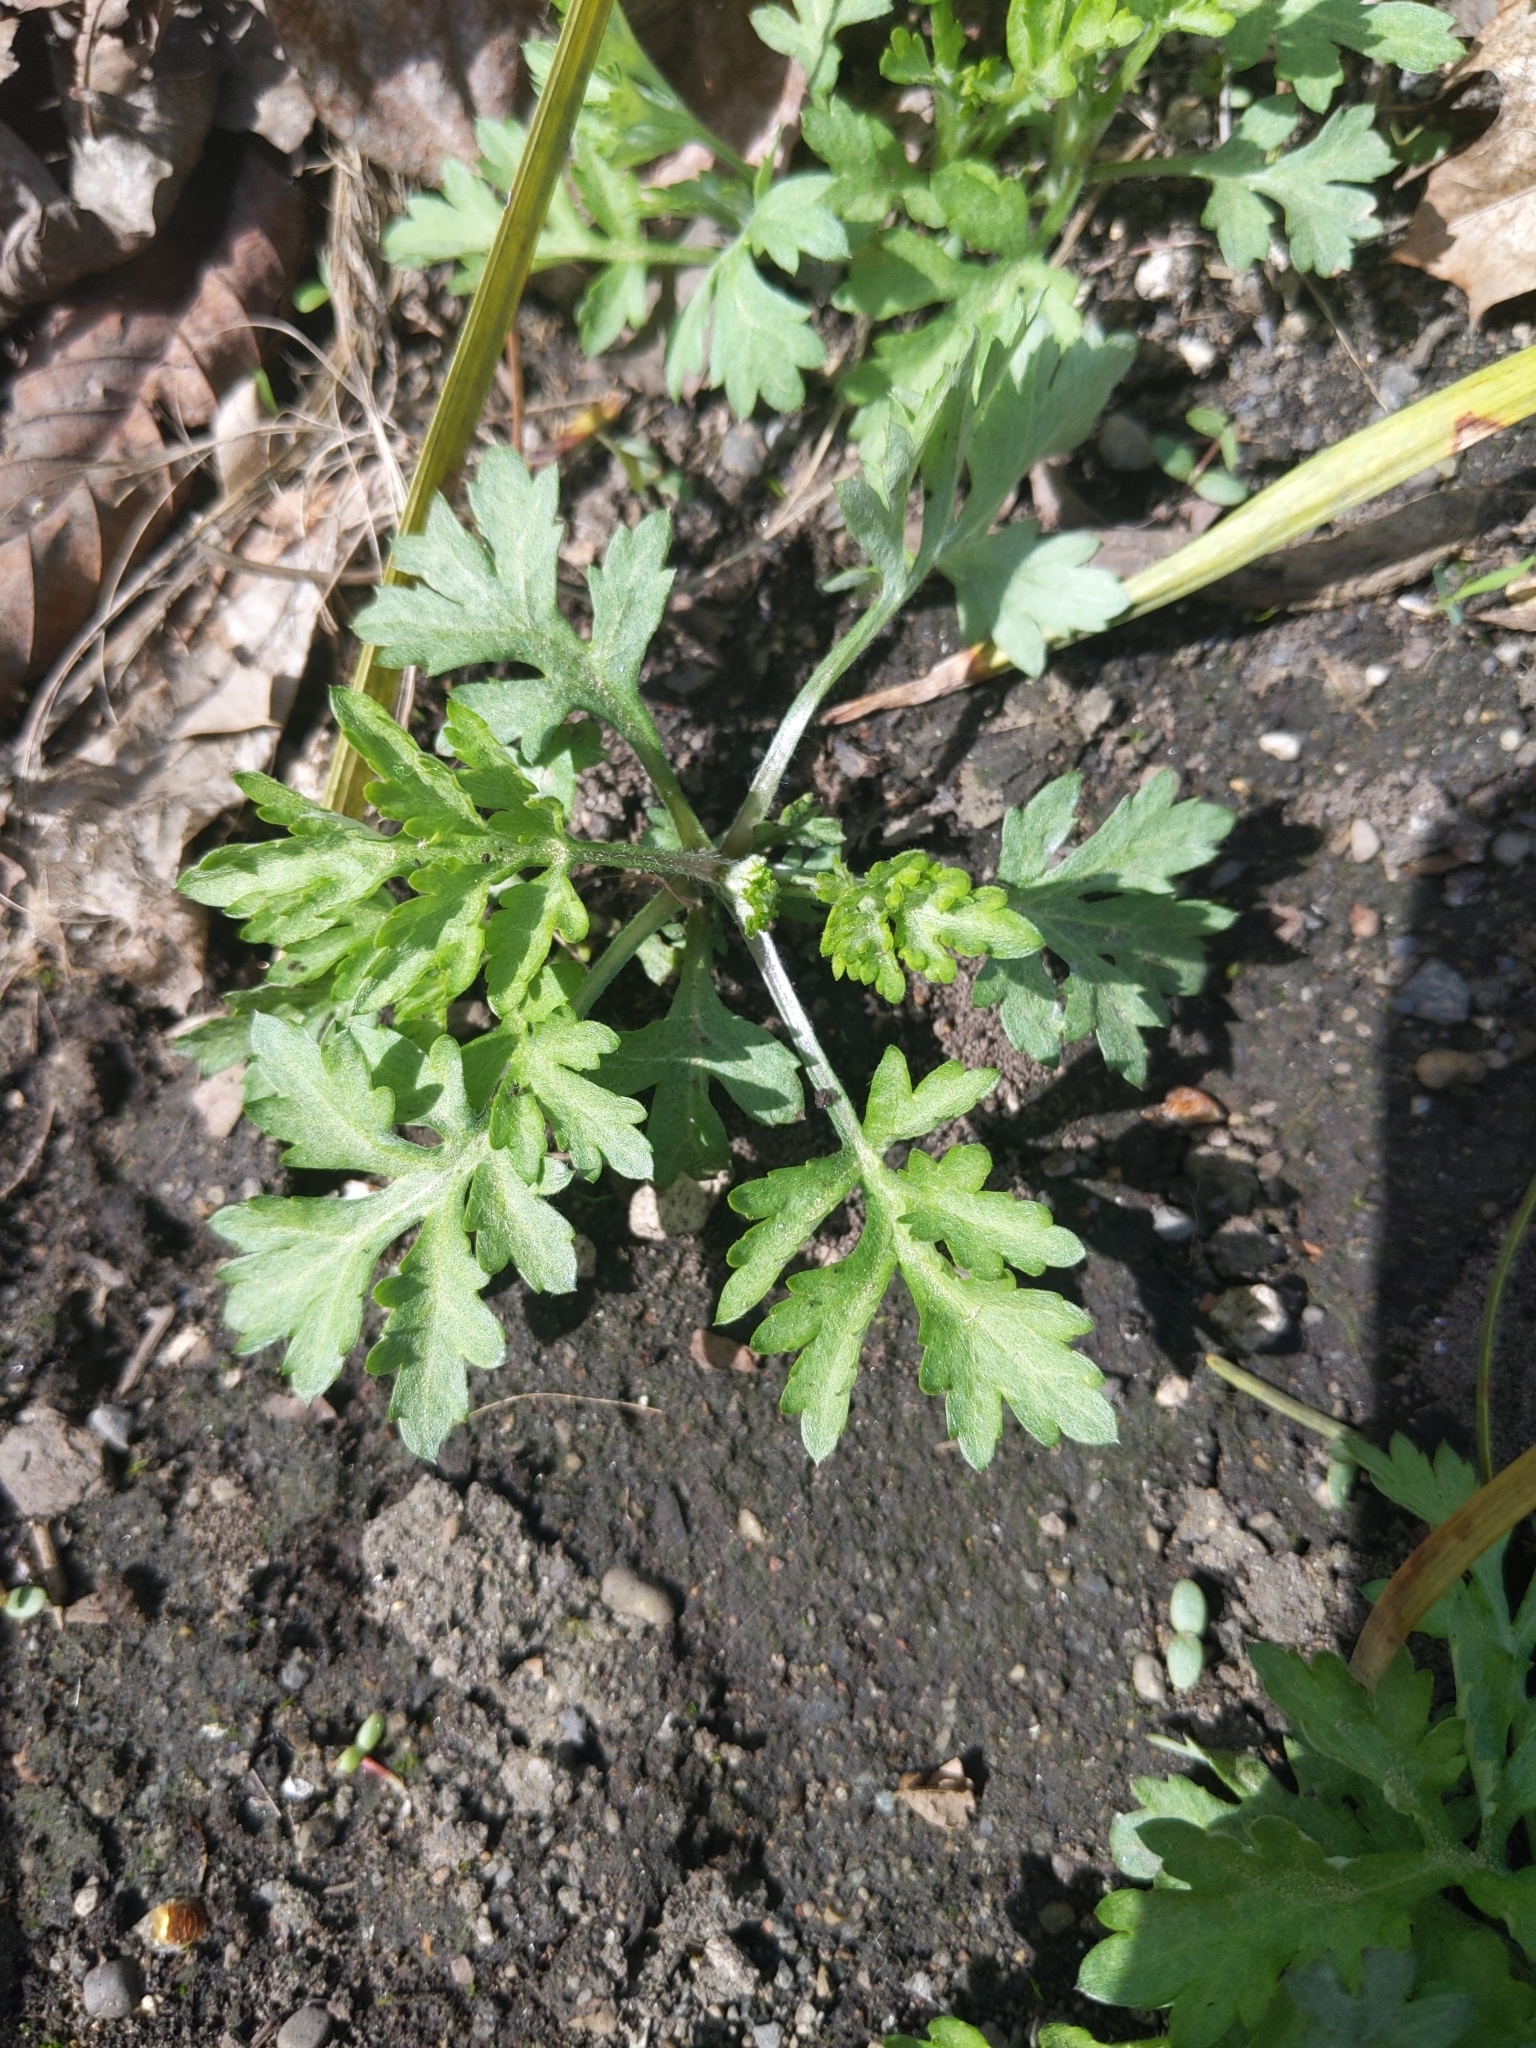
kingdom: Plantae
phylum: Tracheophyta
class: Magnoliopsida
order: Asterales
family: Asteraceae
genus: Artemisia
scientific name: Artemisia vulgaris
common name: Mugwort
